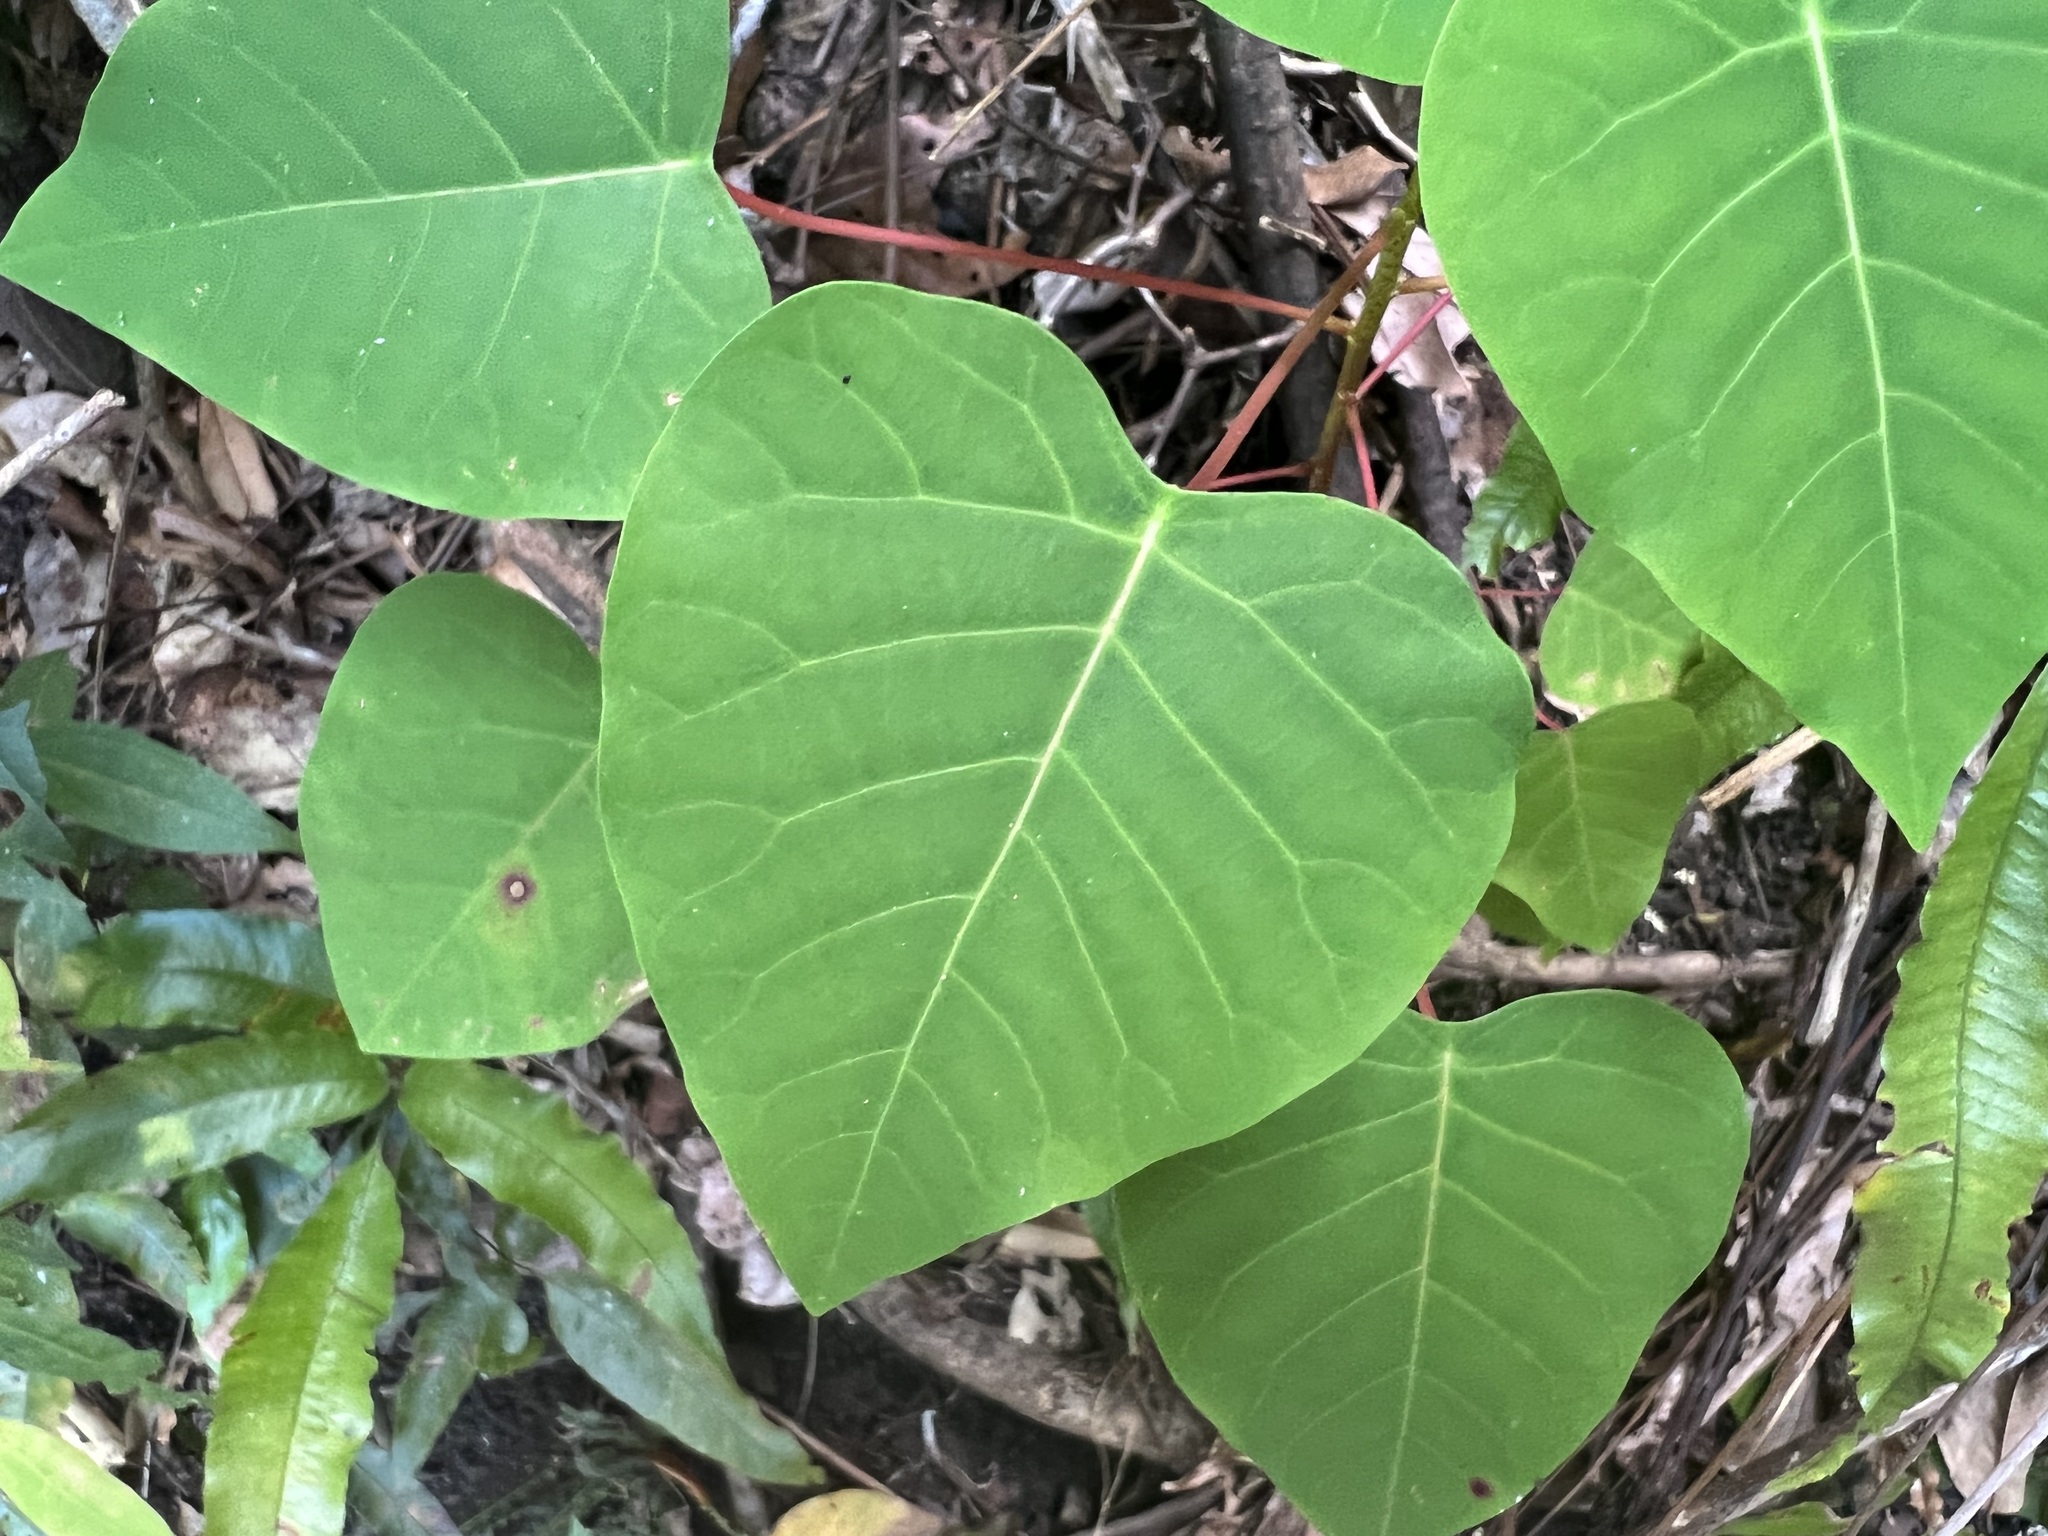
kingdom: Plantae
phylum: Tracheophyta
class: Magnoliopsida
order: Malpighiales
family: Euphorbiaceae
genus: Homalanthus
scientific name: Homalanthus novoguineensis
